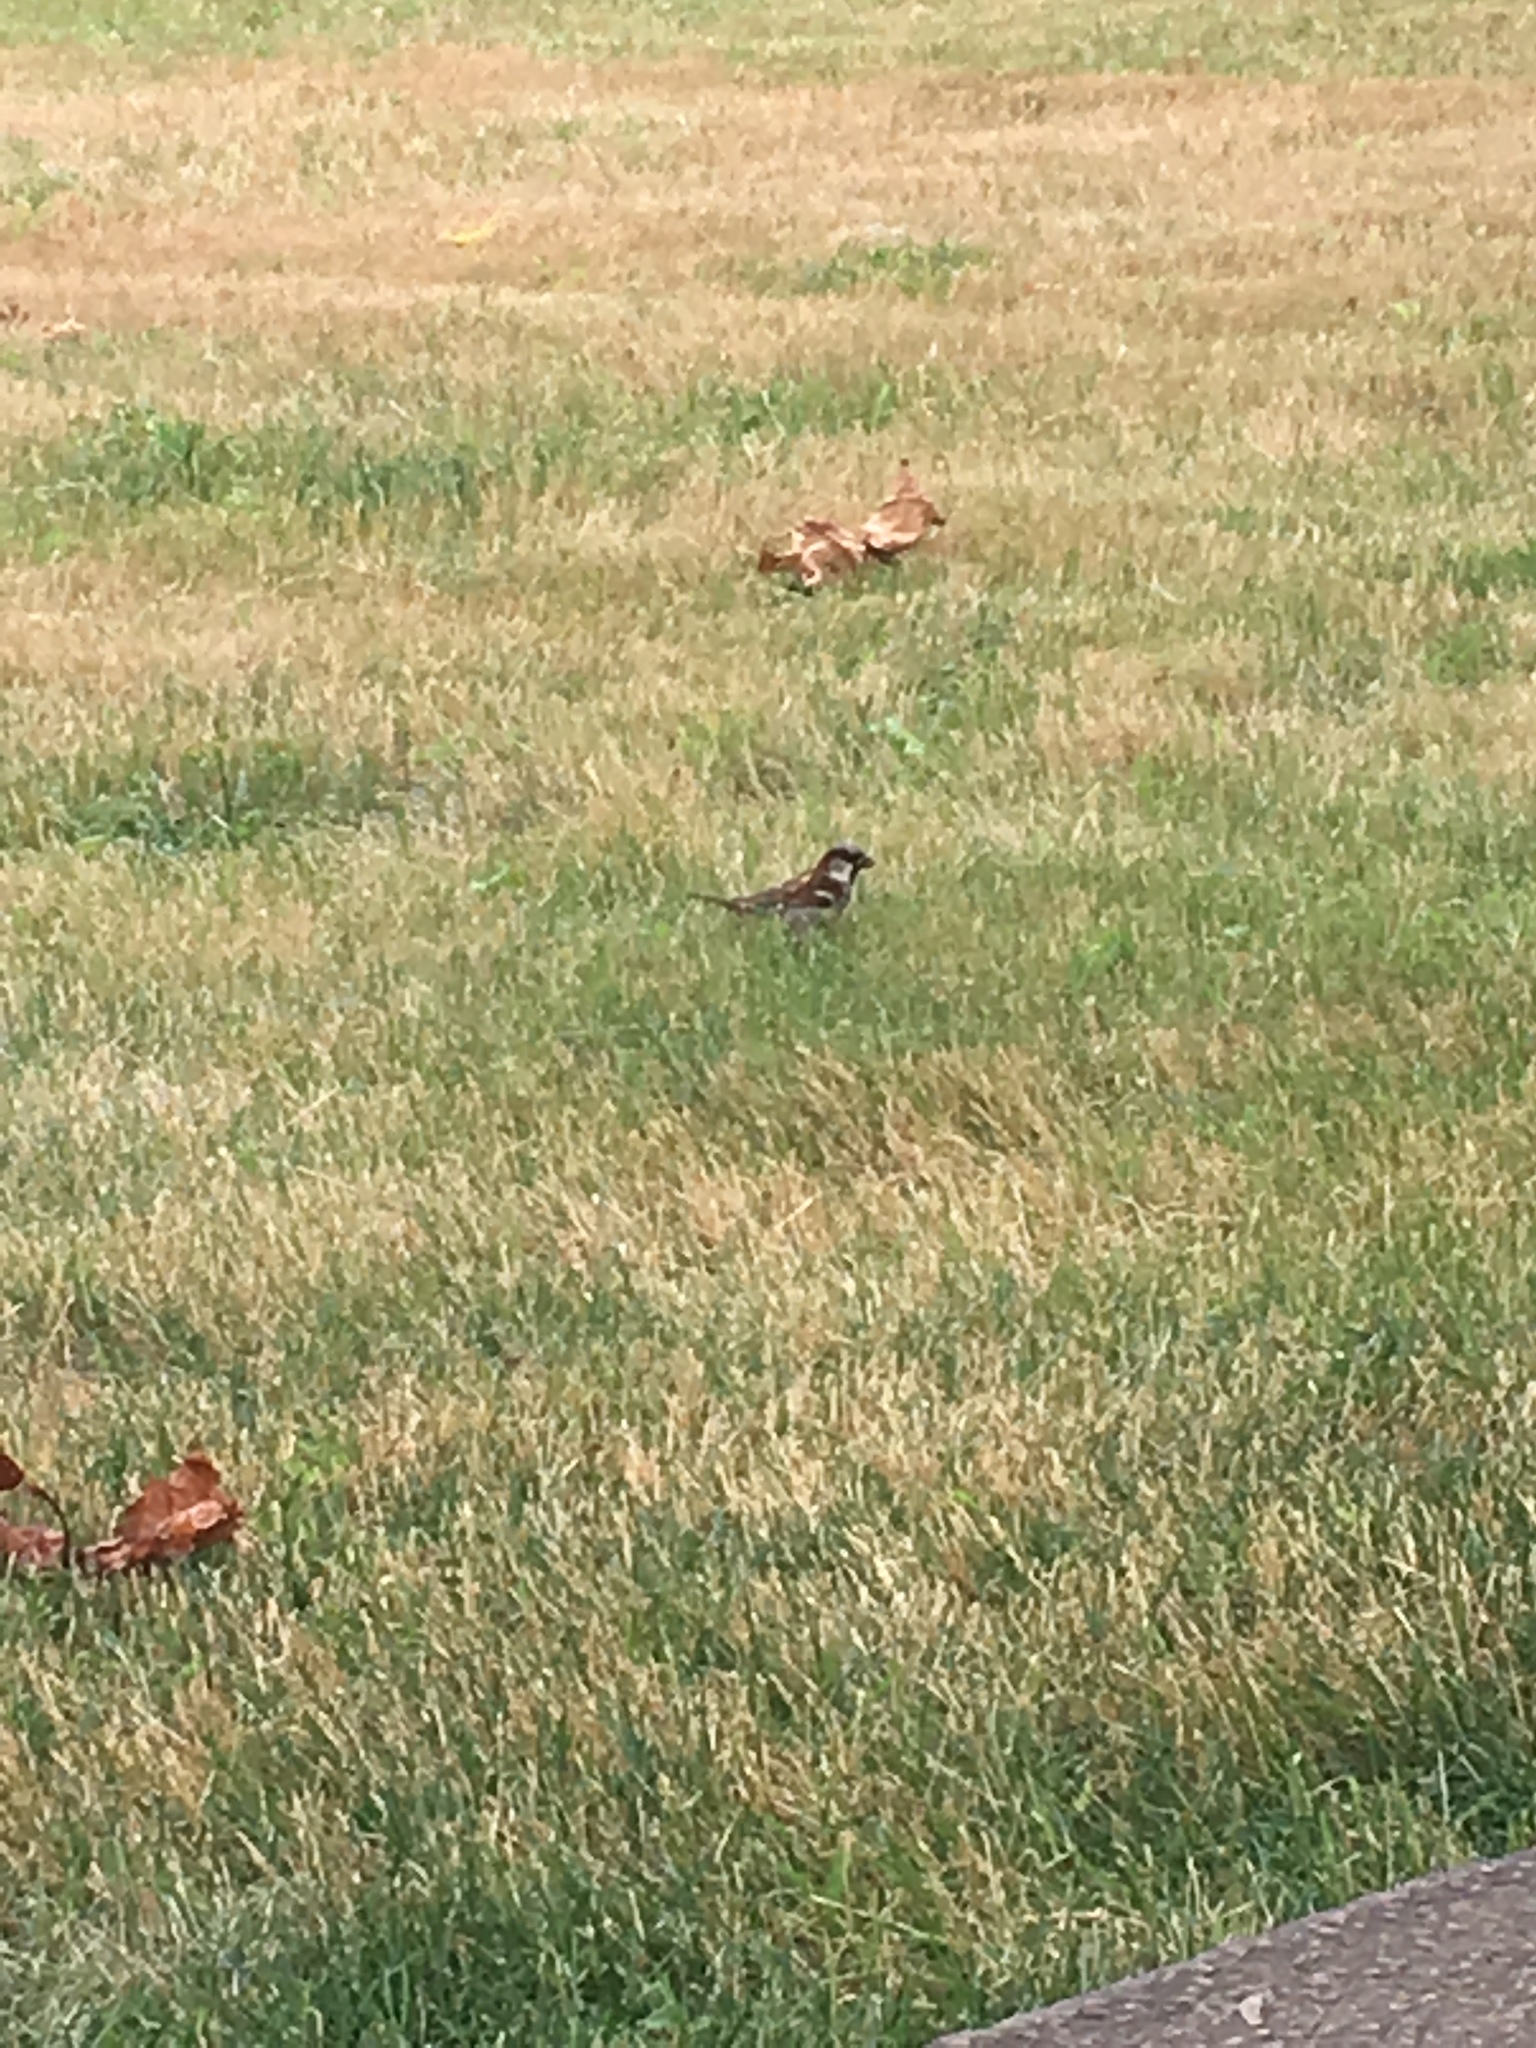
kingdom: Animalia
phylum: Chordata
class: Aves
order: Passeriformes
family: Passeridae
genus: Passer
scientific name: Passer domesticus
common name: House sparrow
